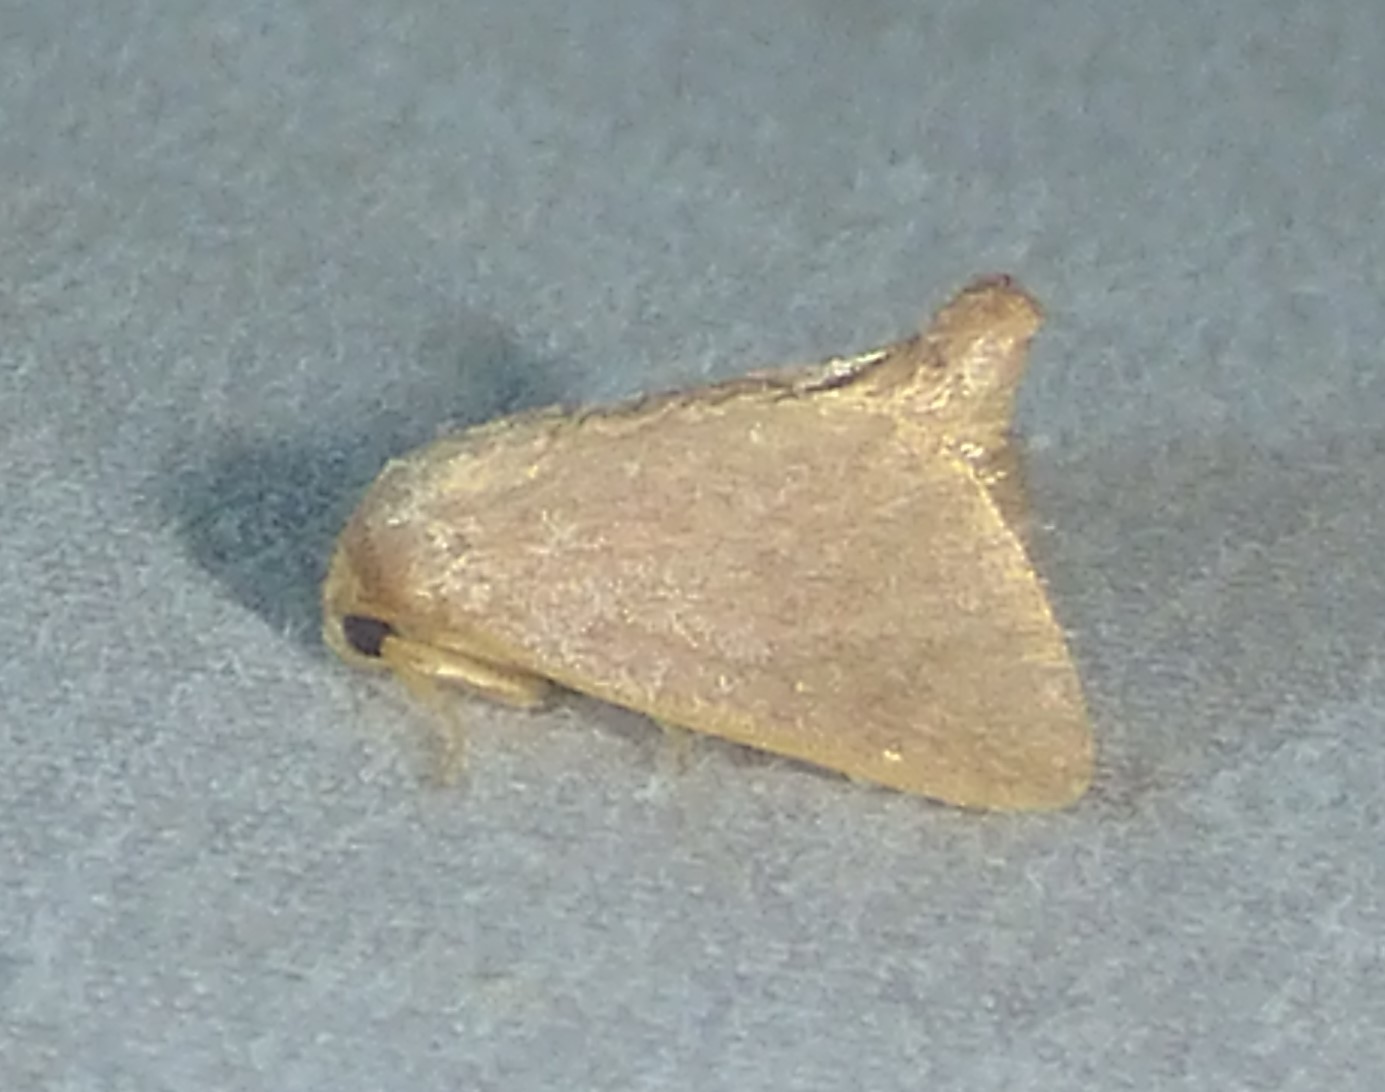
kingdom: Animalia
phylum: Arthropoda
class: Insecta
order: Lepidoptera
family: Limacodidae
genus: Tortricidia
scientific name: Tortricidia pallida
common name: Red-crossed button slug moth
